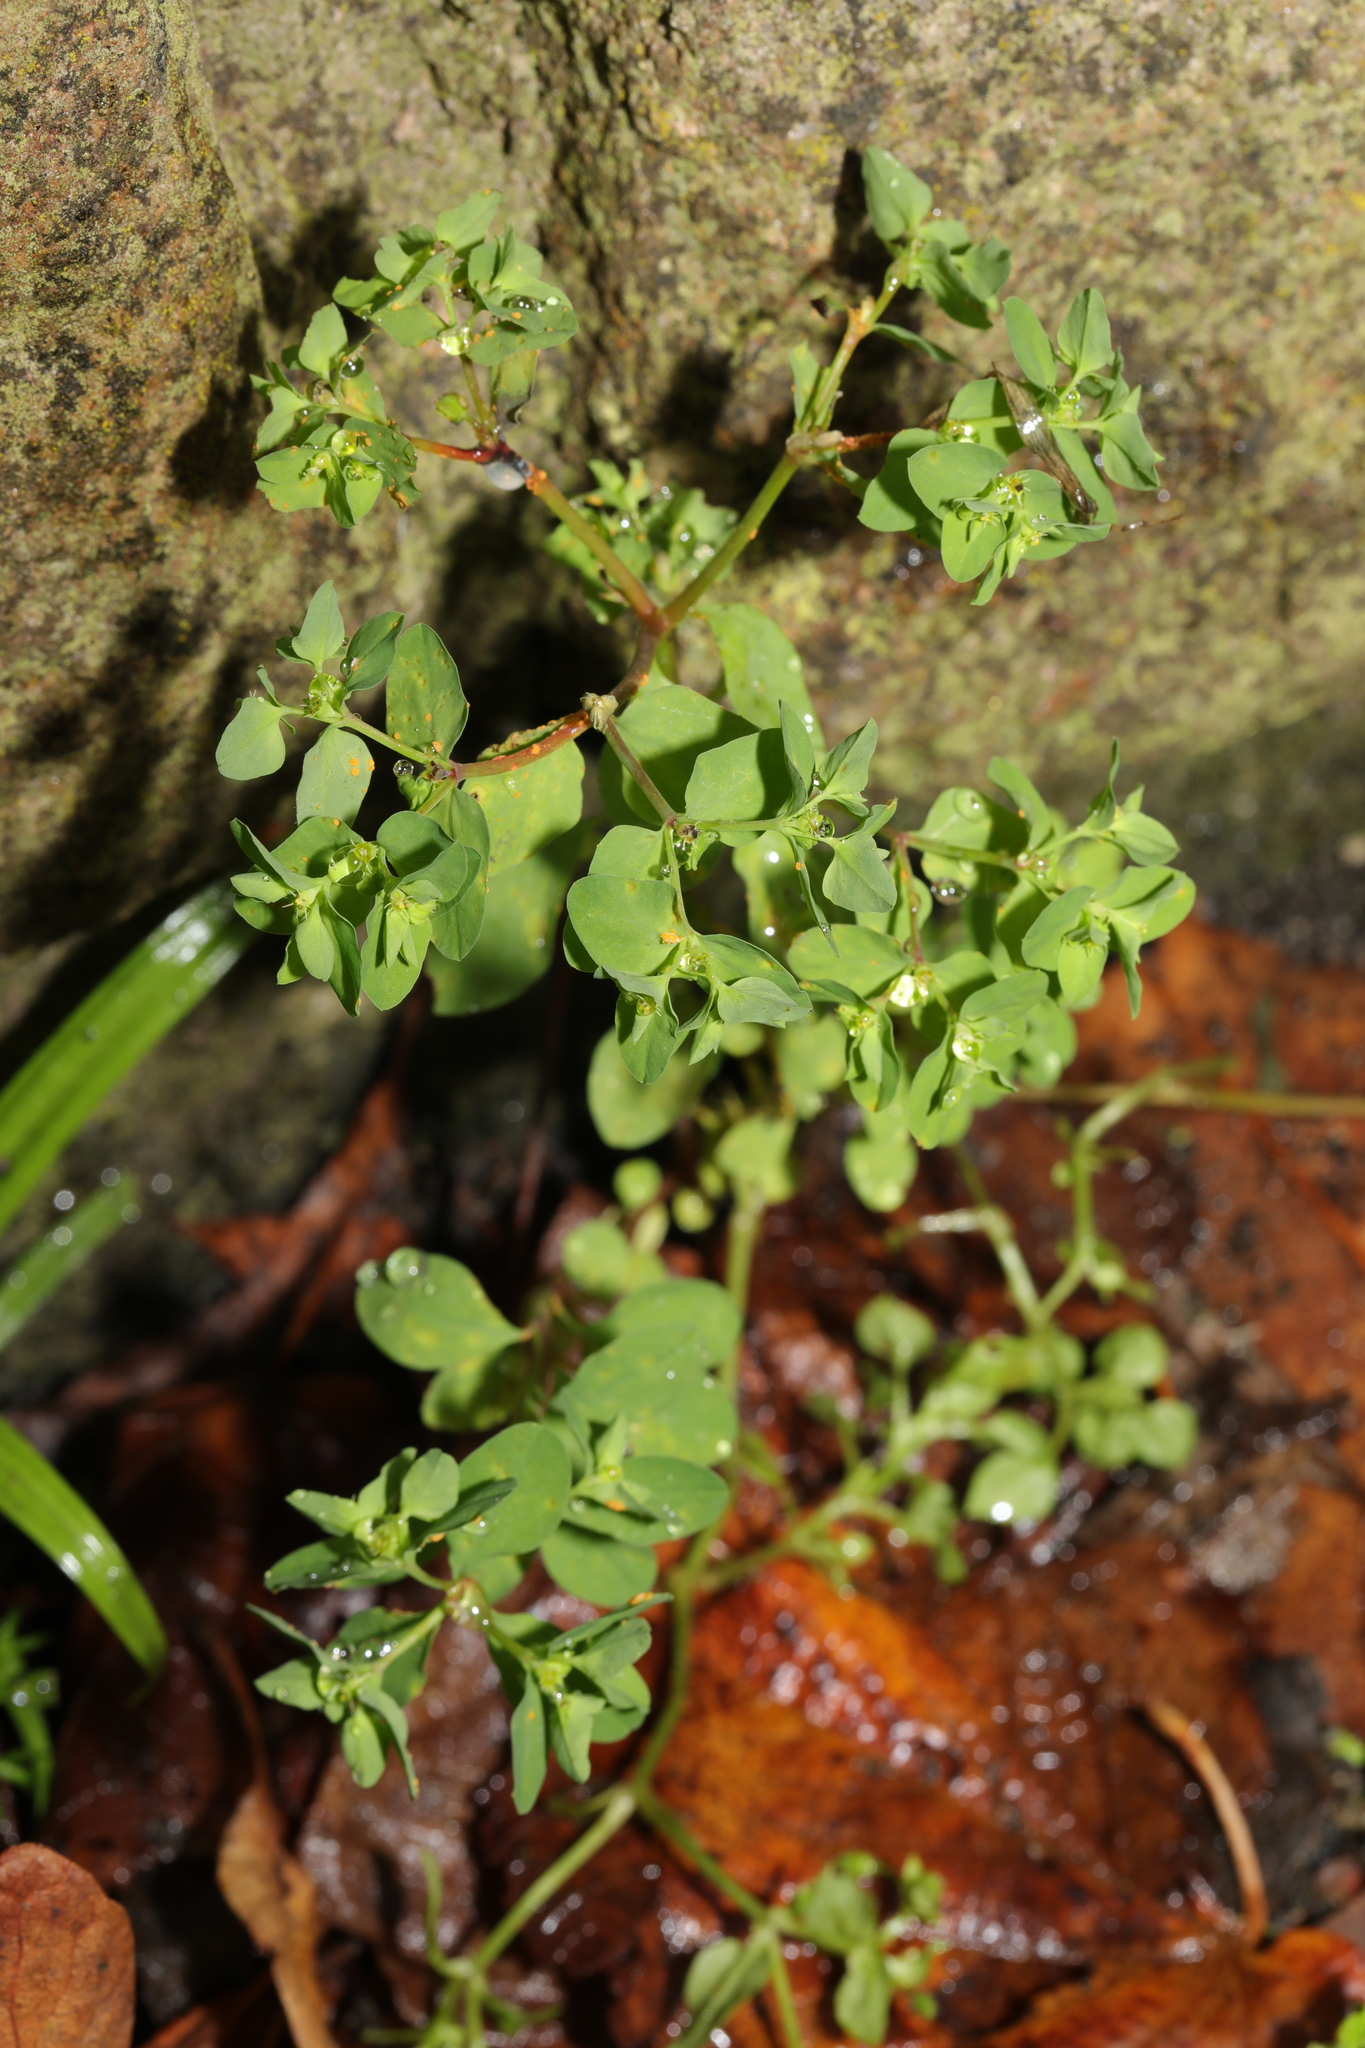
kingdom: Plantae
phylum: Tracheophyta
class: Magnoliopsida
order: Malpighiales
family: Euphorbiaceae
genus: Euphorbia
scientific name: Euphorbia peplus
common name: Petty spurge
